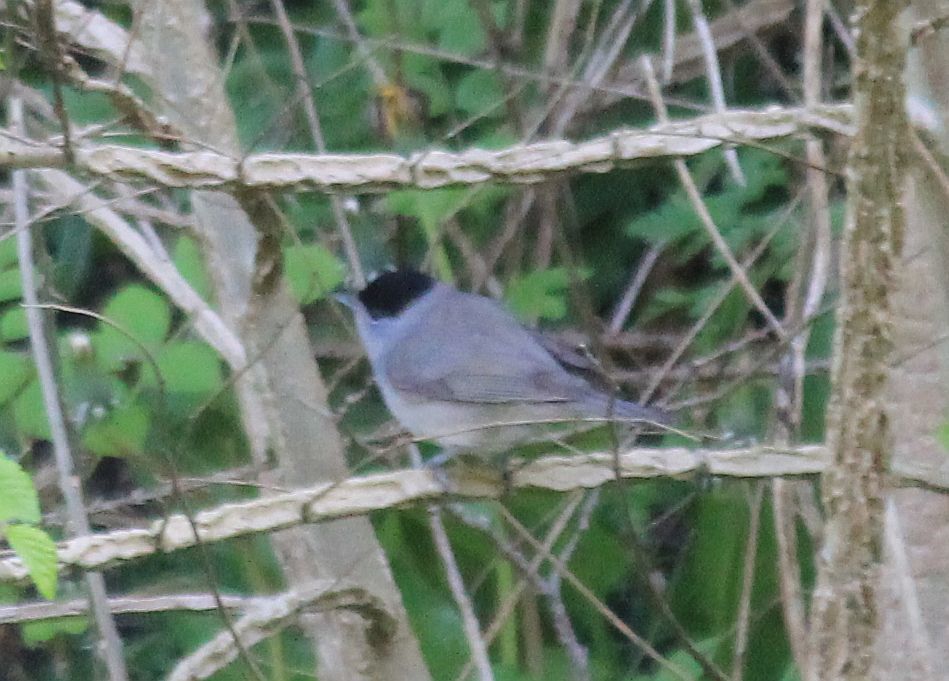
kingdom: Animalia
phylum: Chordata
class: Aves
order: Passeriformes
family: Sylviidae
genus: Sylvia
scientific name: Sylvia atricapilla
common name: Eurasian blackcap
